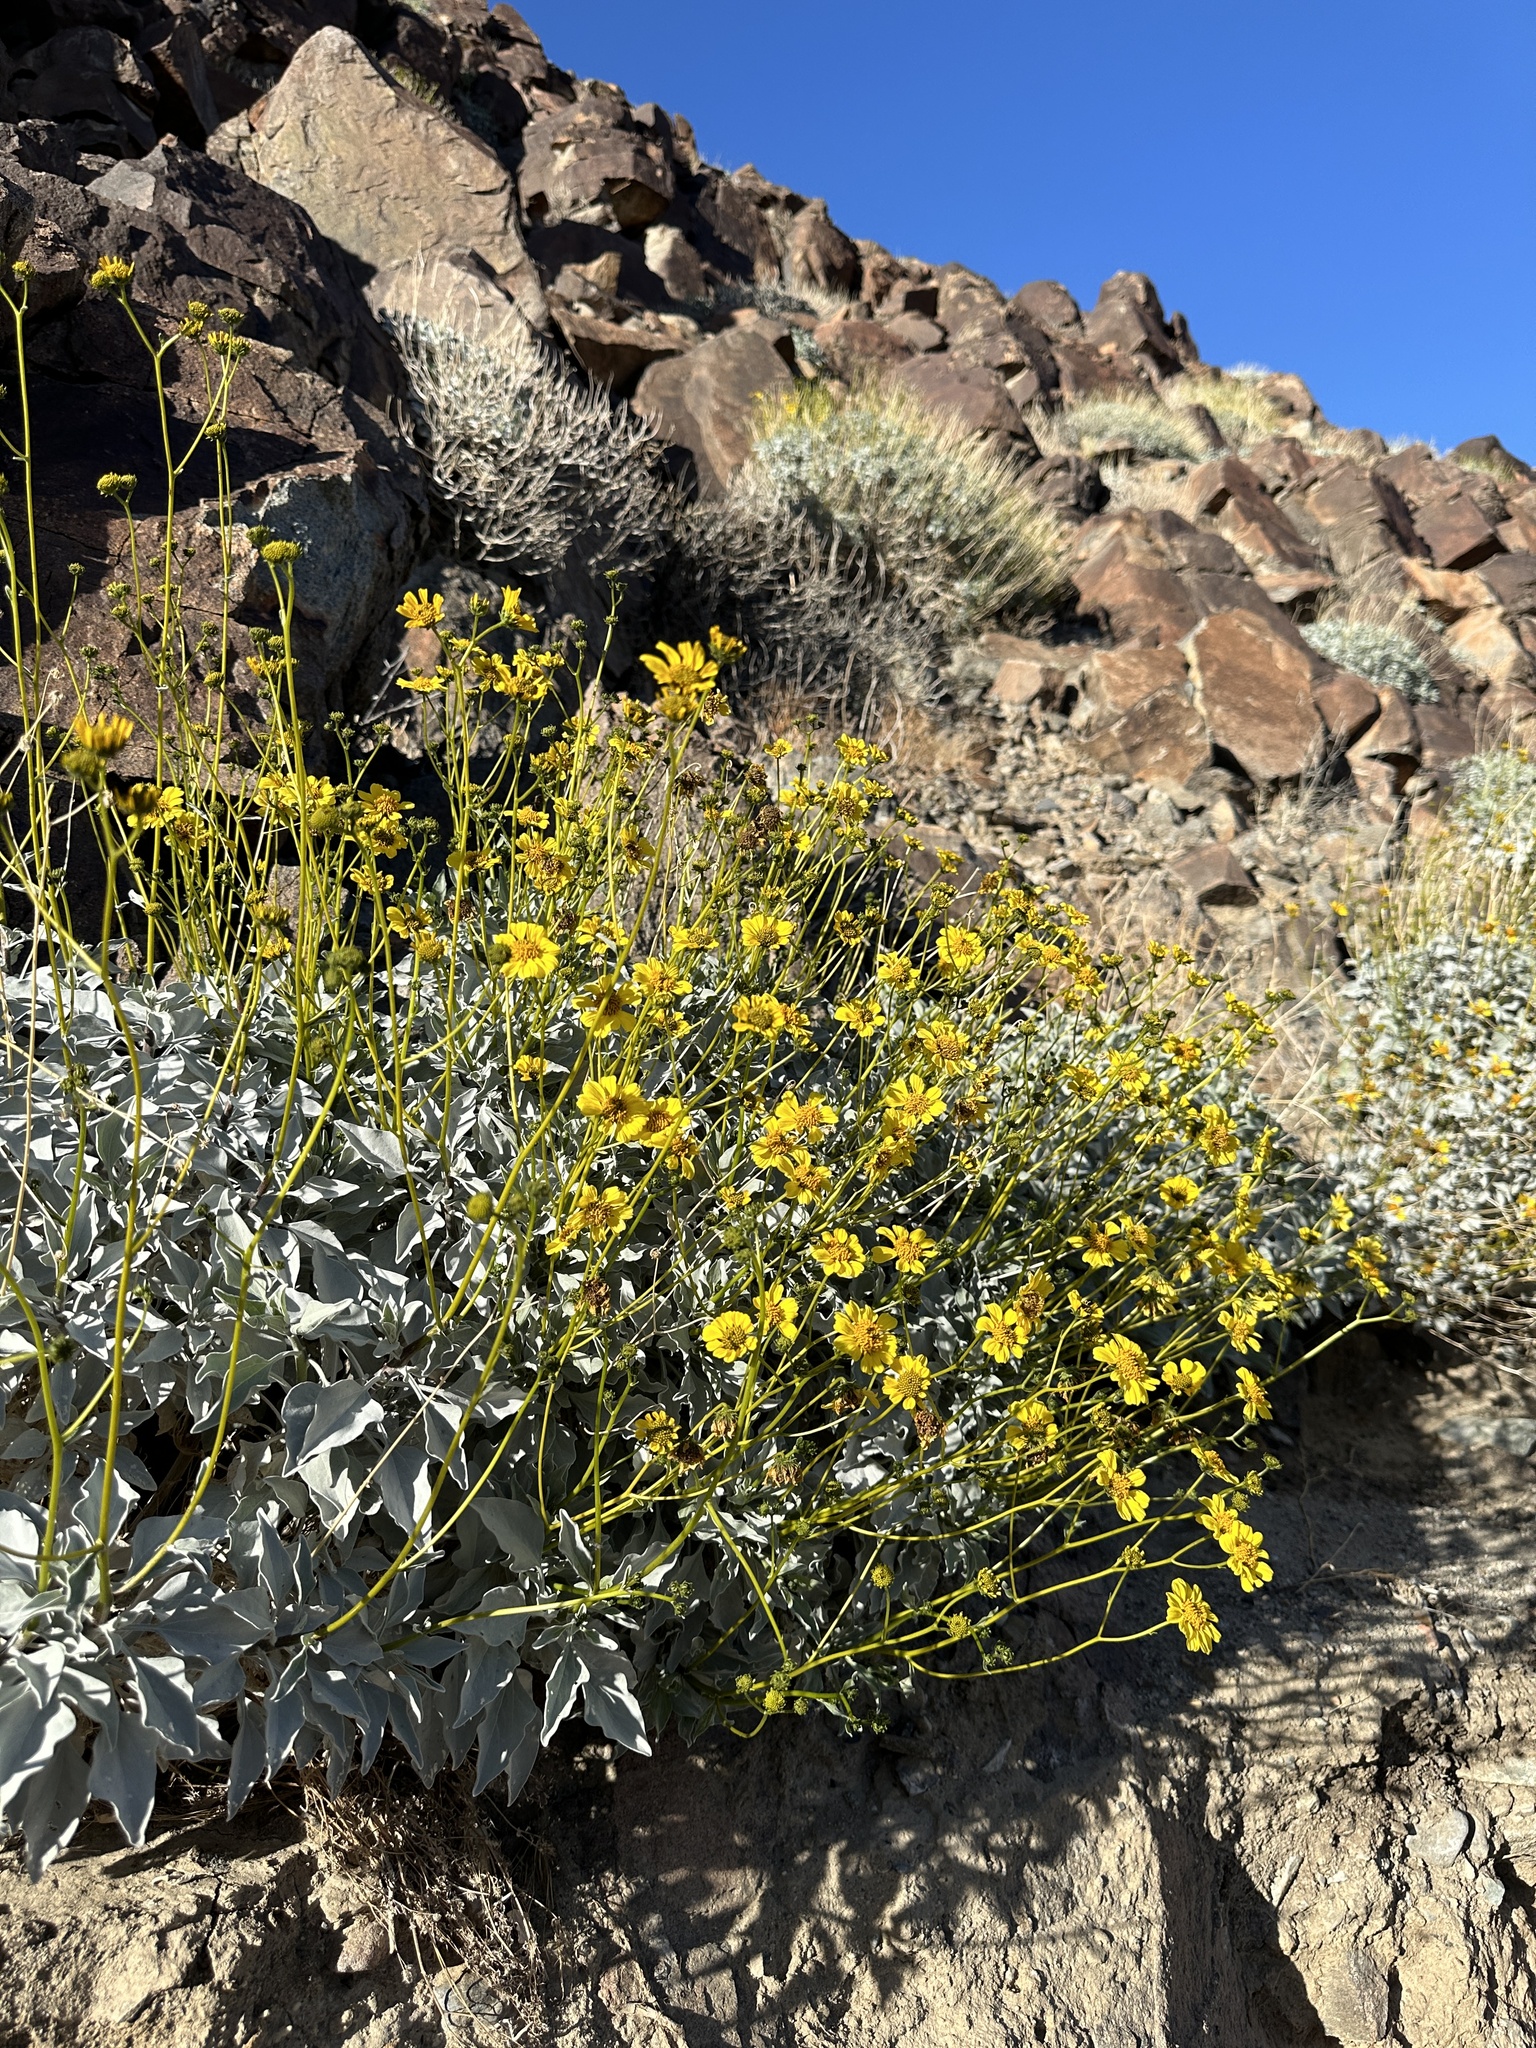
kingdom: Plantae
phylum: Tracheophyta
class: Magnoliopsida
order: Asterales
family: Asteraceae
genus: Encelia
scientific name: Encelia farinosa
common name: Brittlebush
